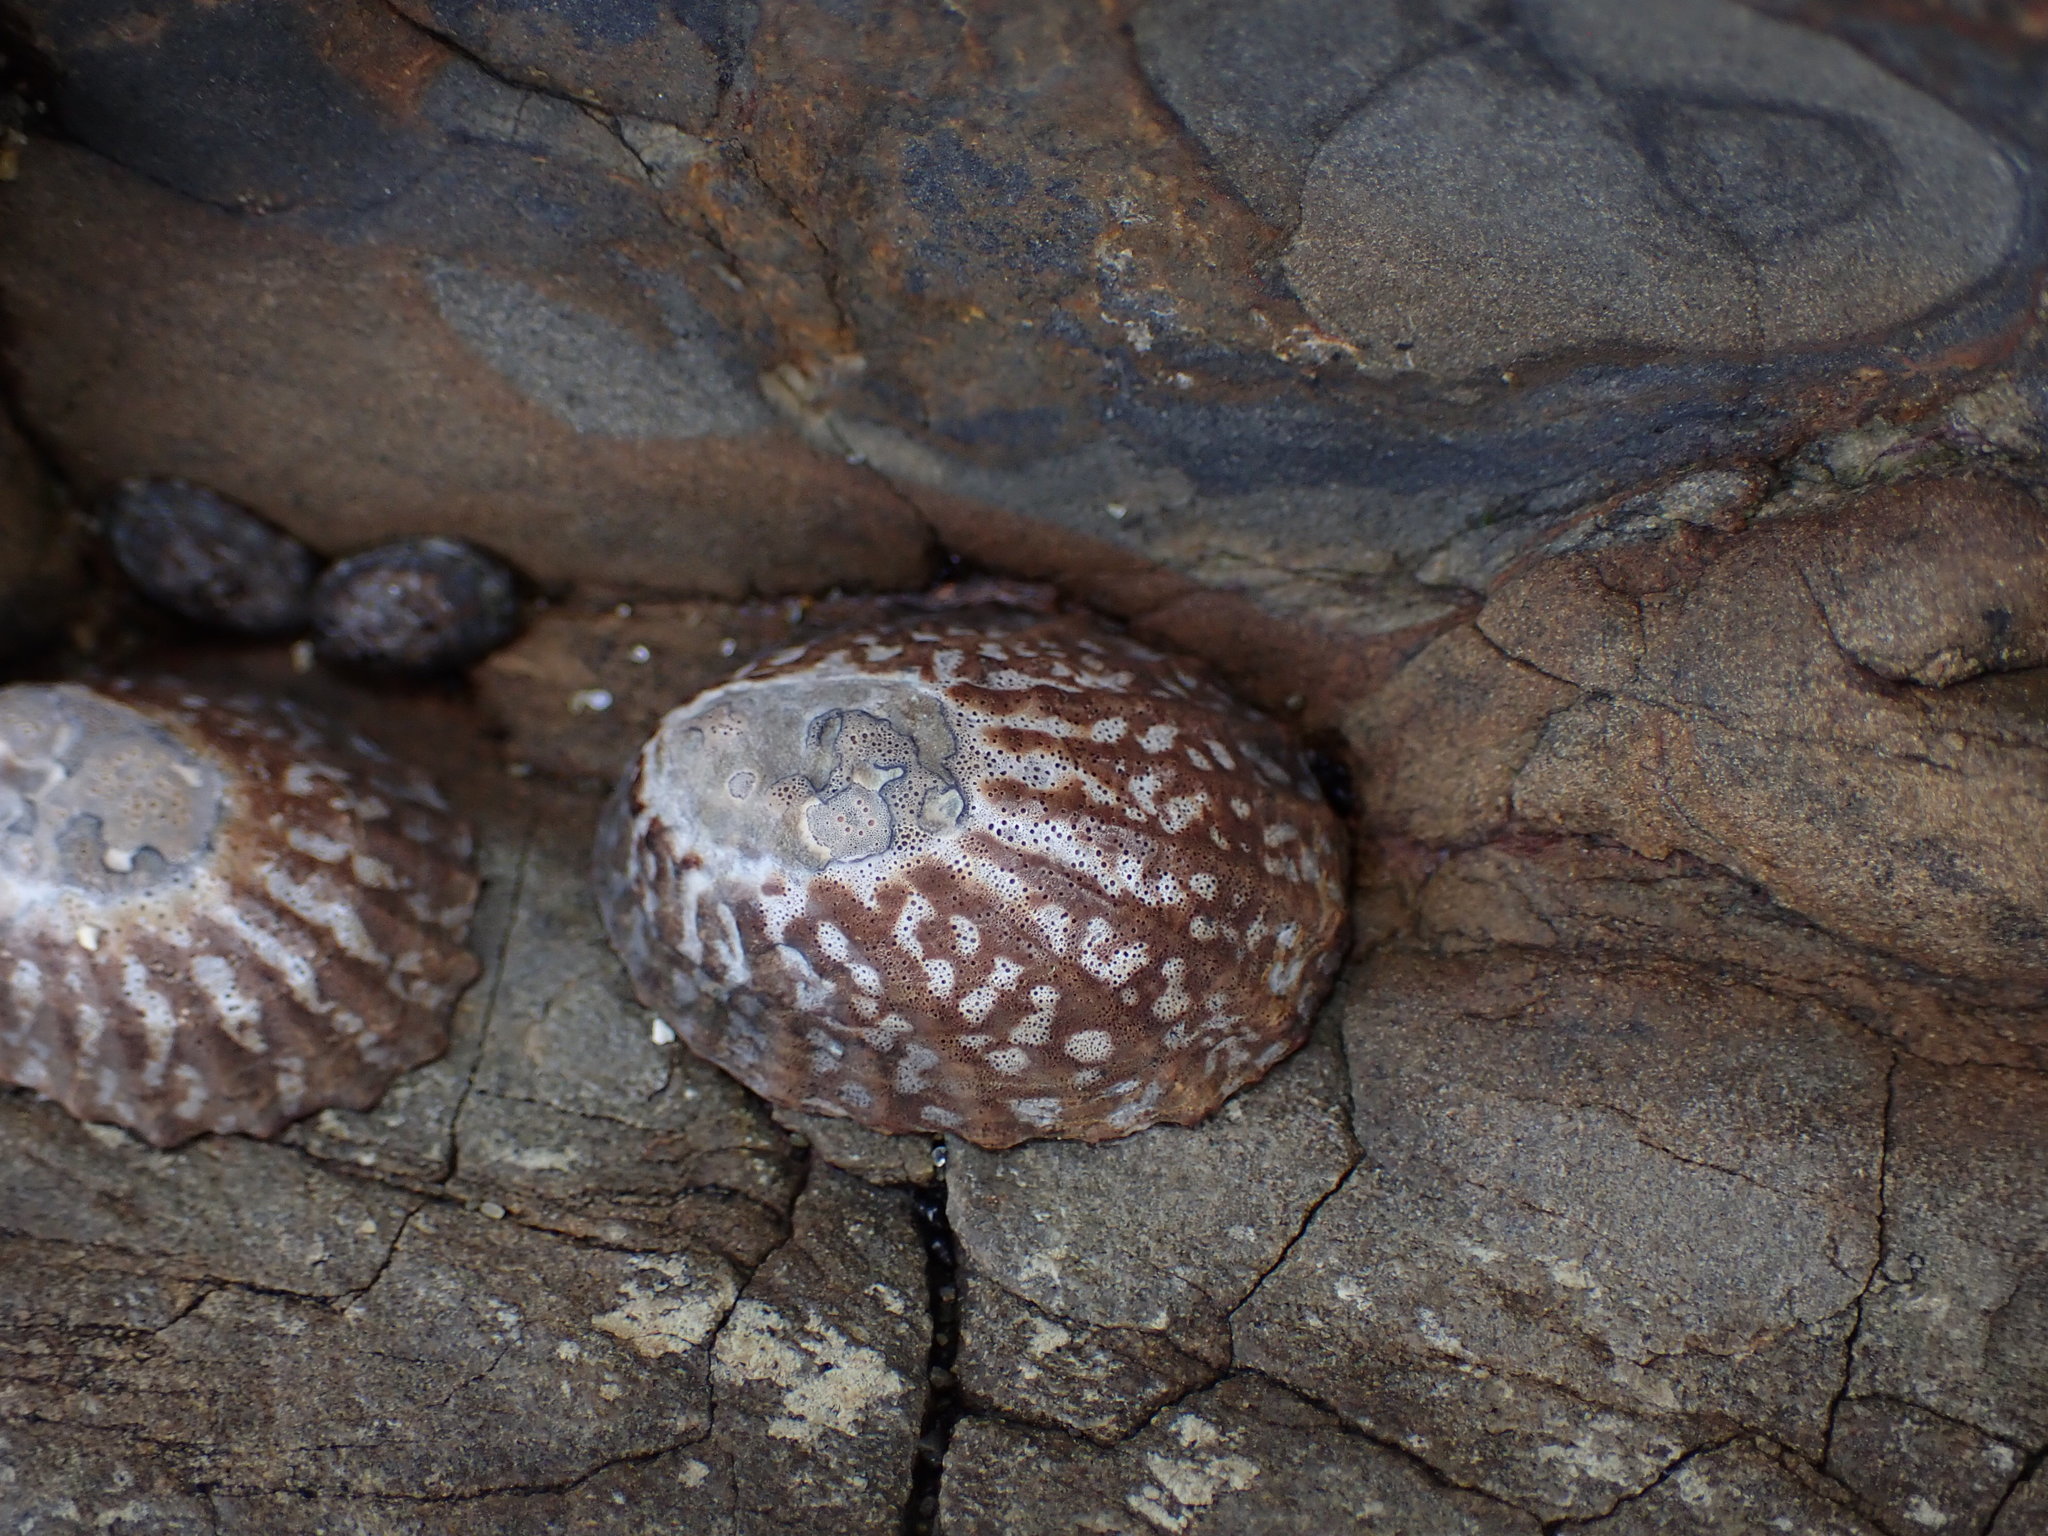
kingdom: Animalia
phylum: Mollusca
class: Gastropoda
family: Nacellidae
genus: Cellana
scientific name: Cellana denticulata
